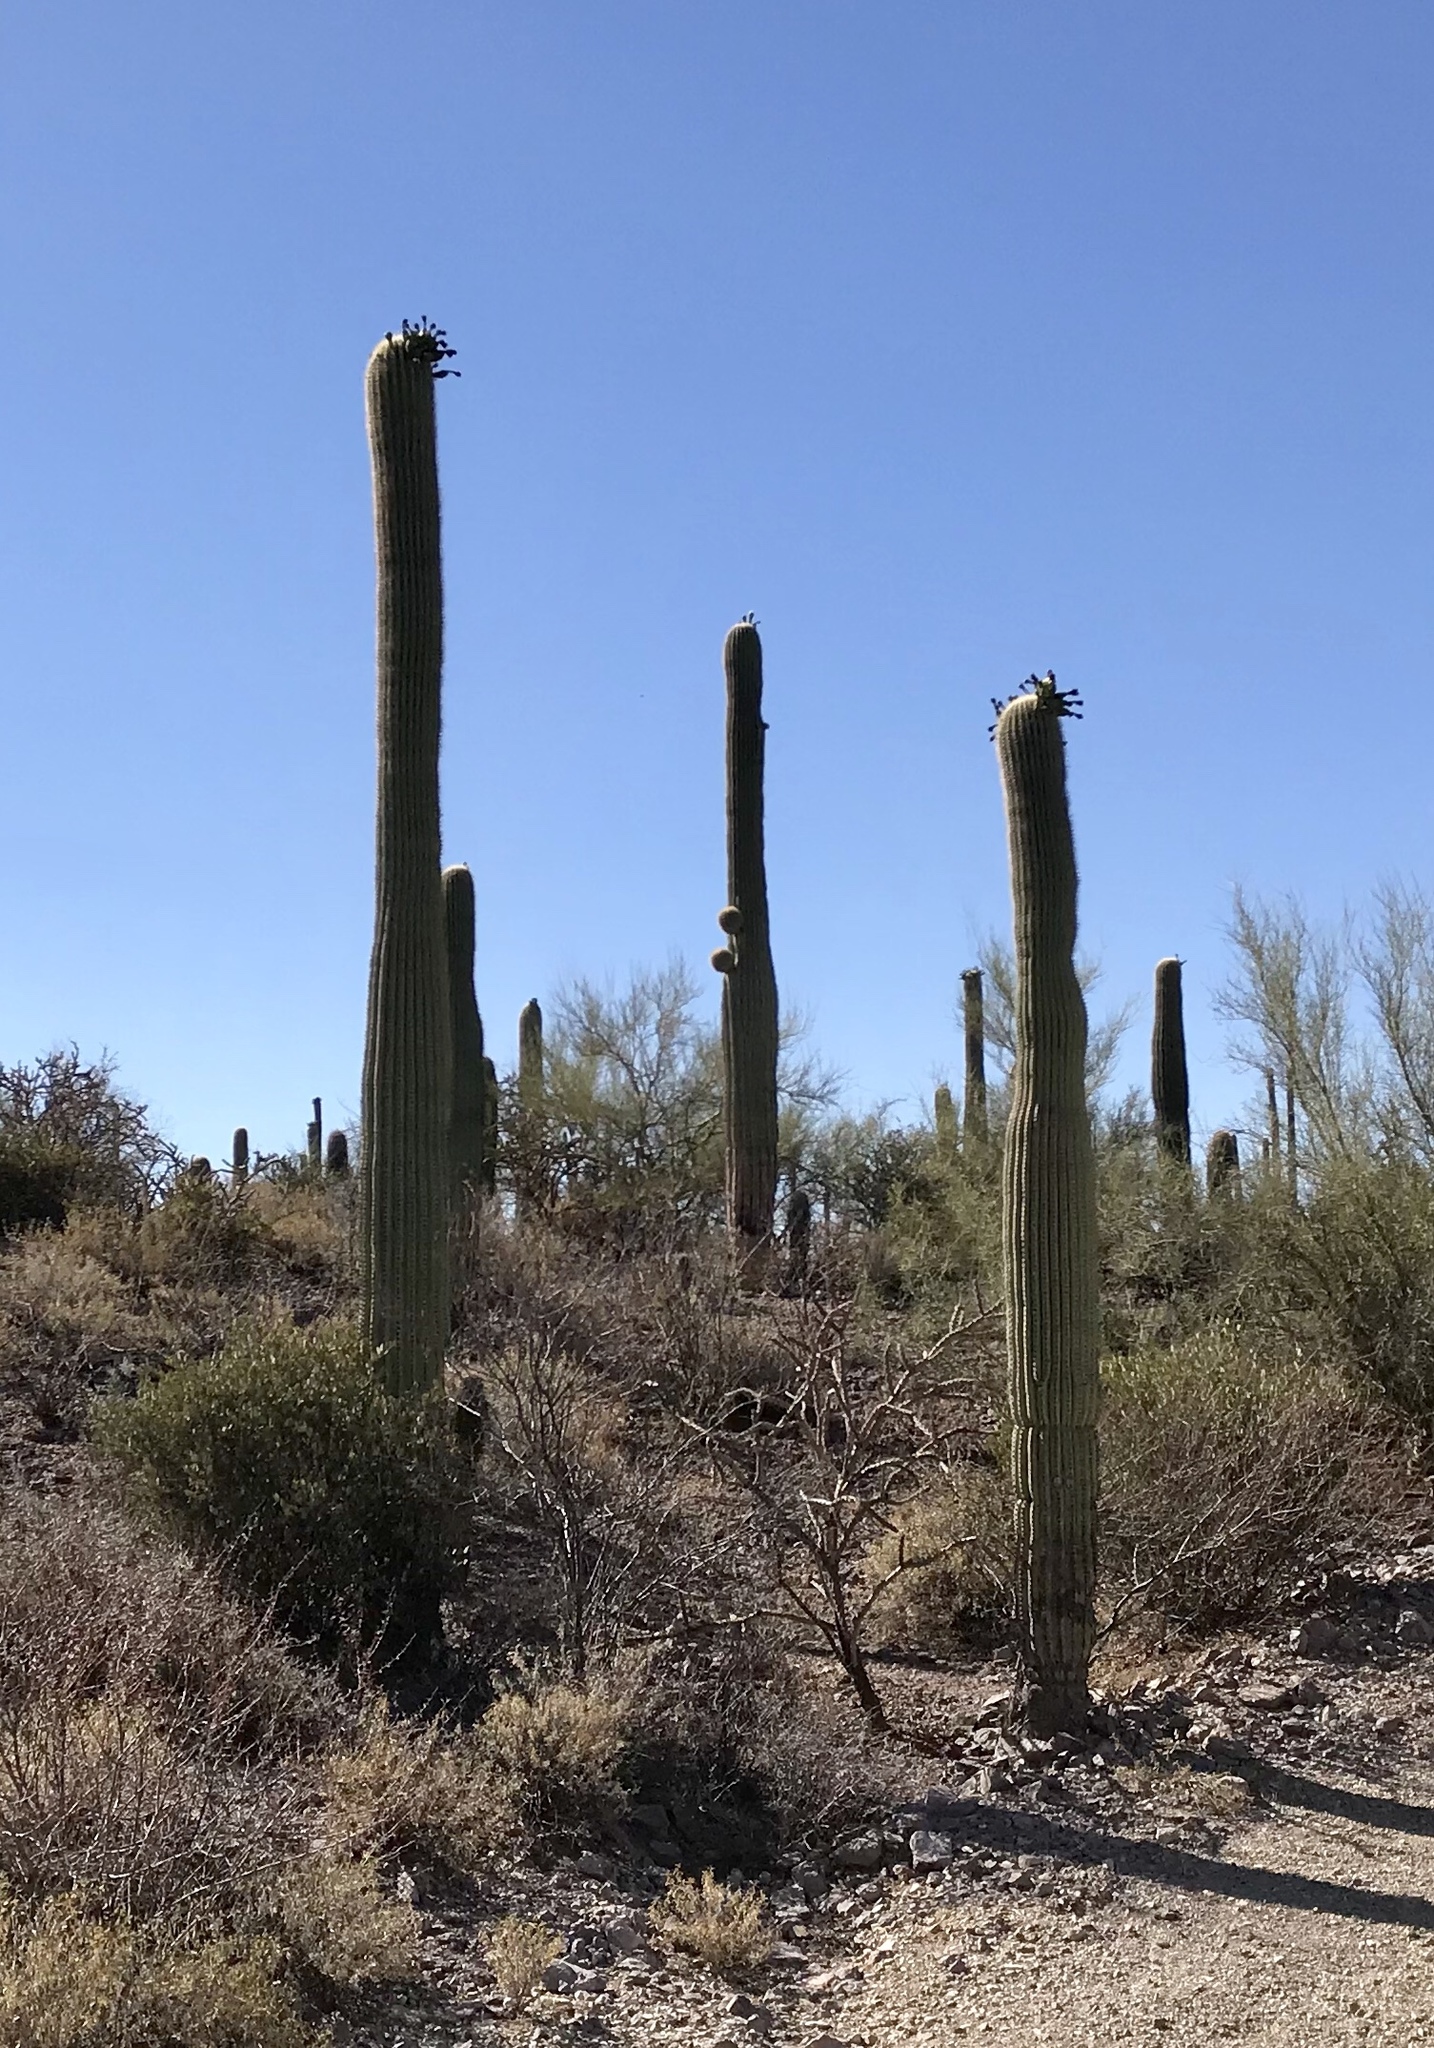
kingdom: Plantae
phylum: Tracheophyta
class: Magnoliopsida
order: Caryophyllales
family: Cactaceae
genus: Carnegiea
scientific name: Carnegiea gigantea
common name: Saguaro
